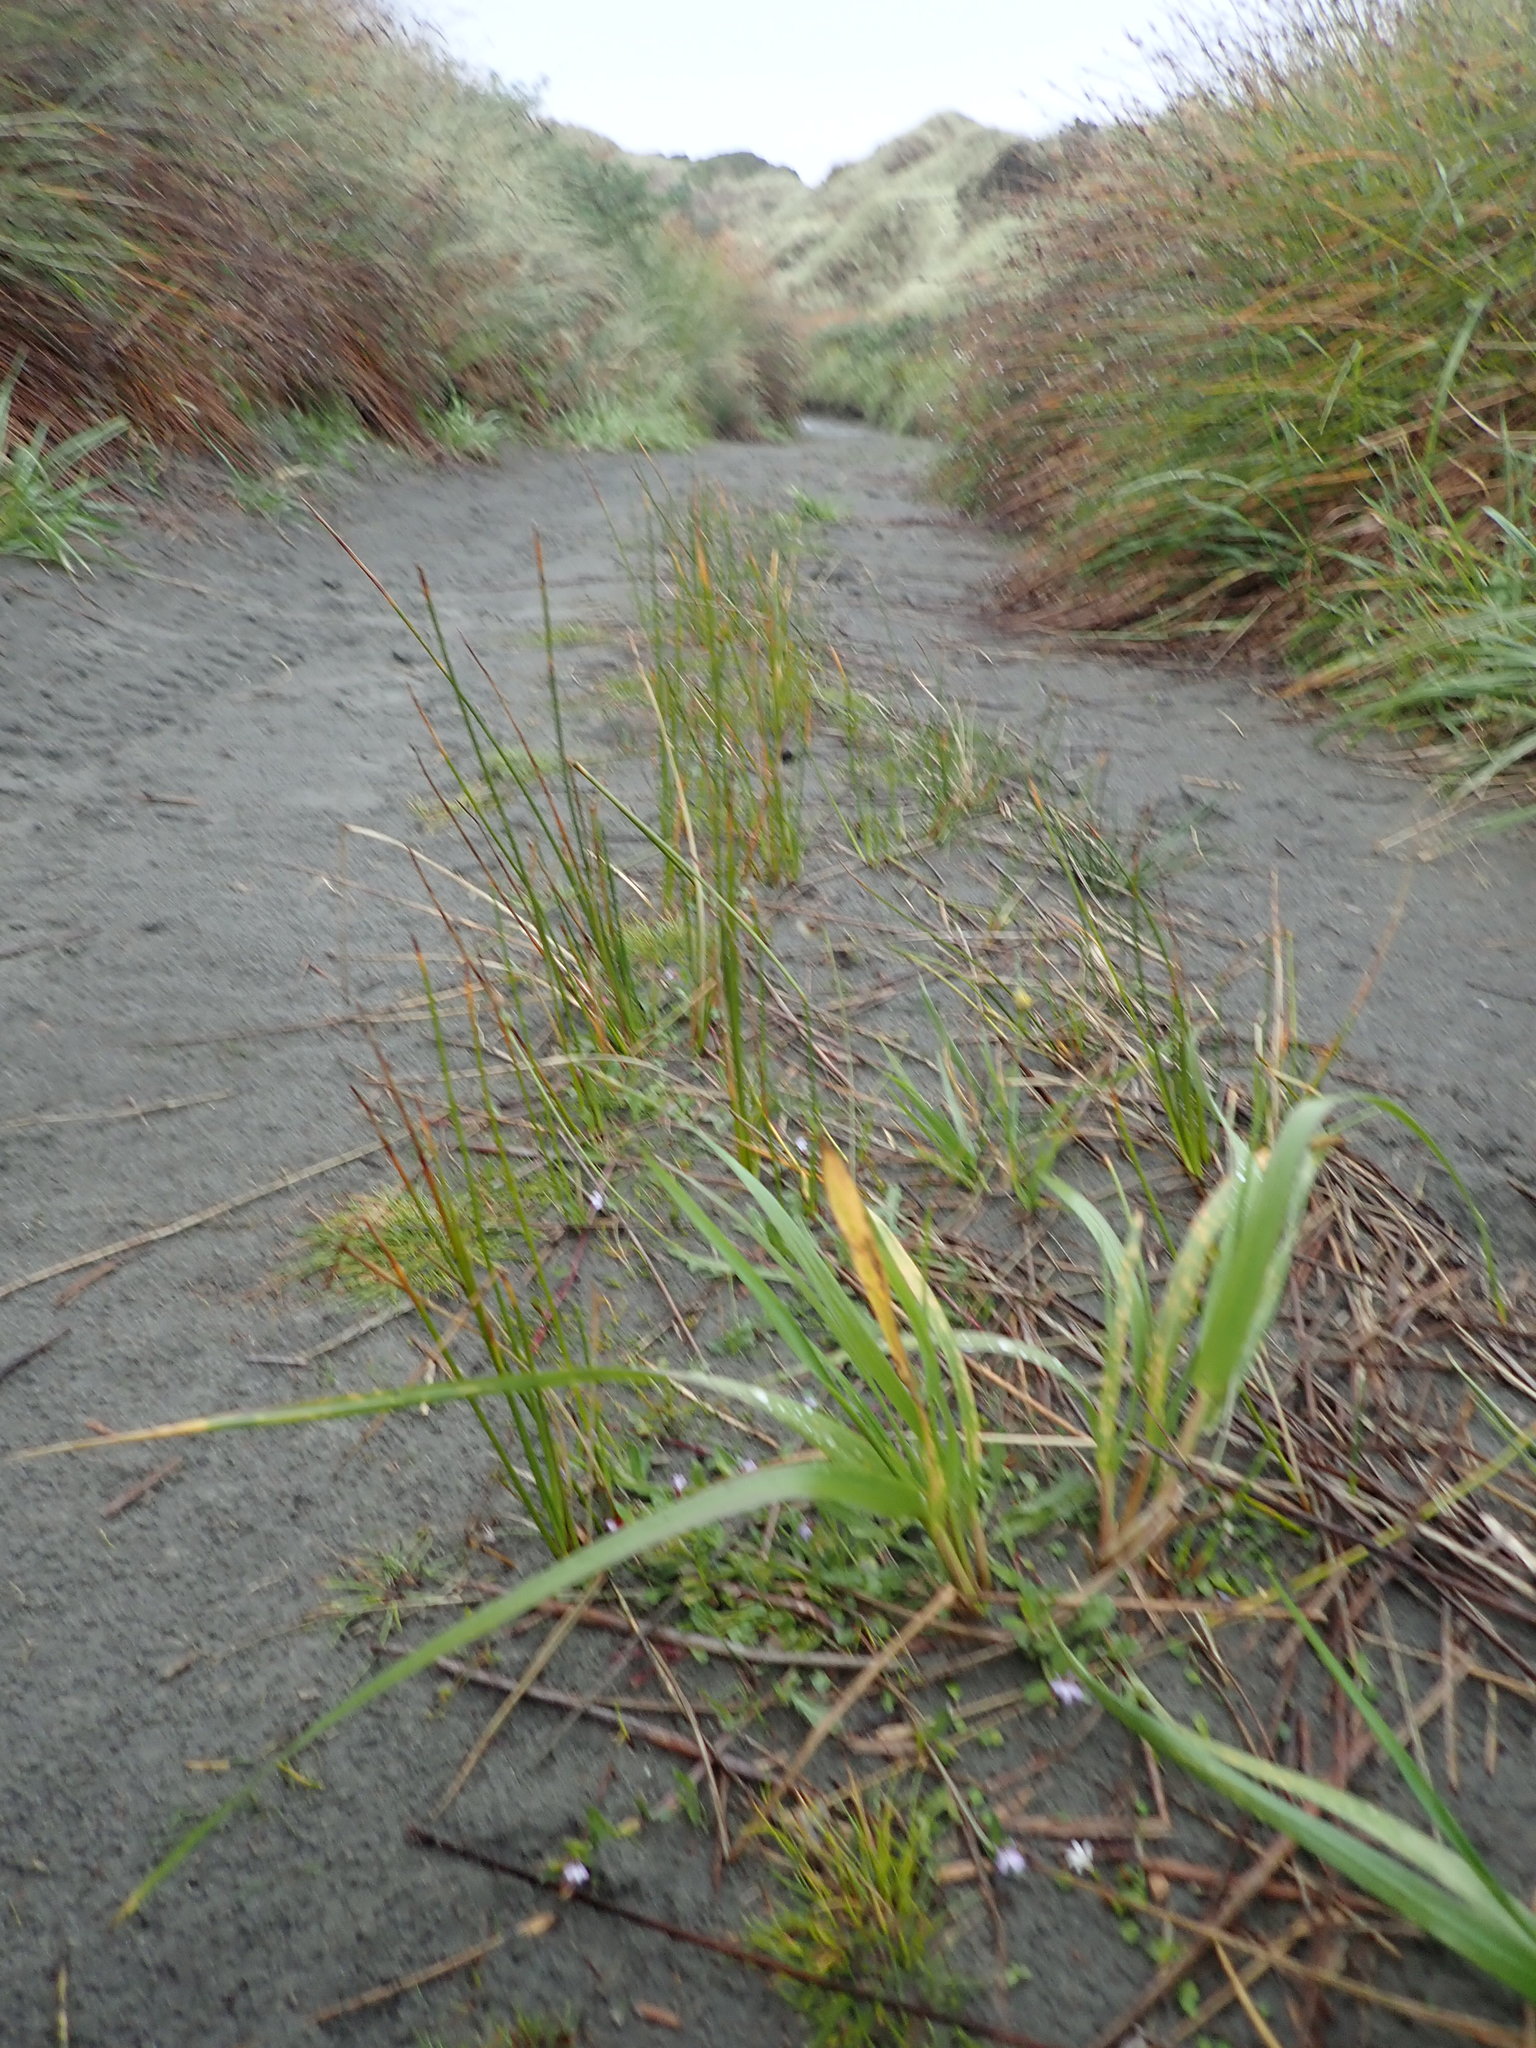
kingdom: Plantae
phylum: Tracheophyta
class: Magnoliopsida
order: Asterales
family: Campanulaceae
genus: Lobelia
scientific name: Lobelia anceps
